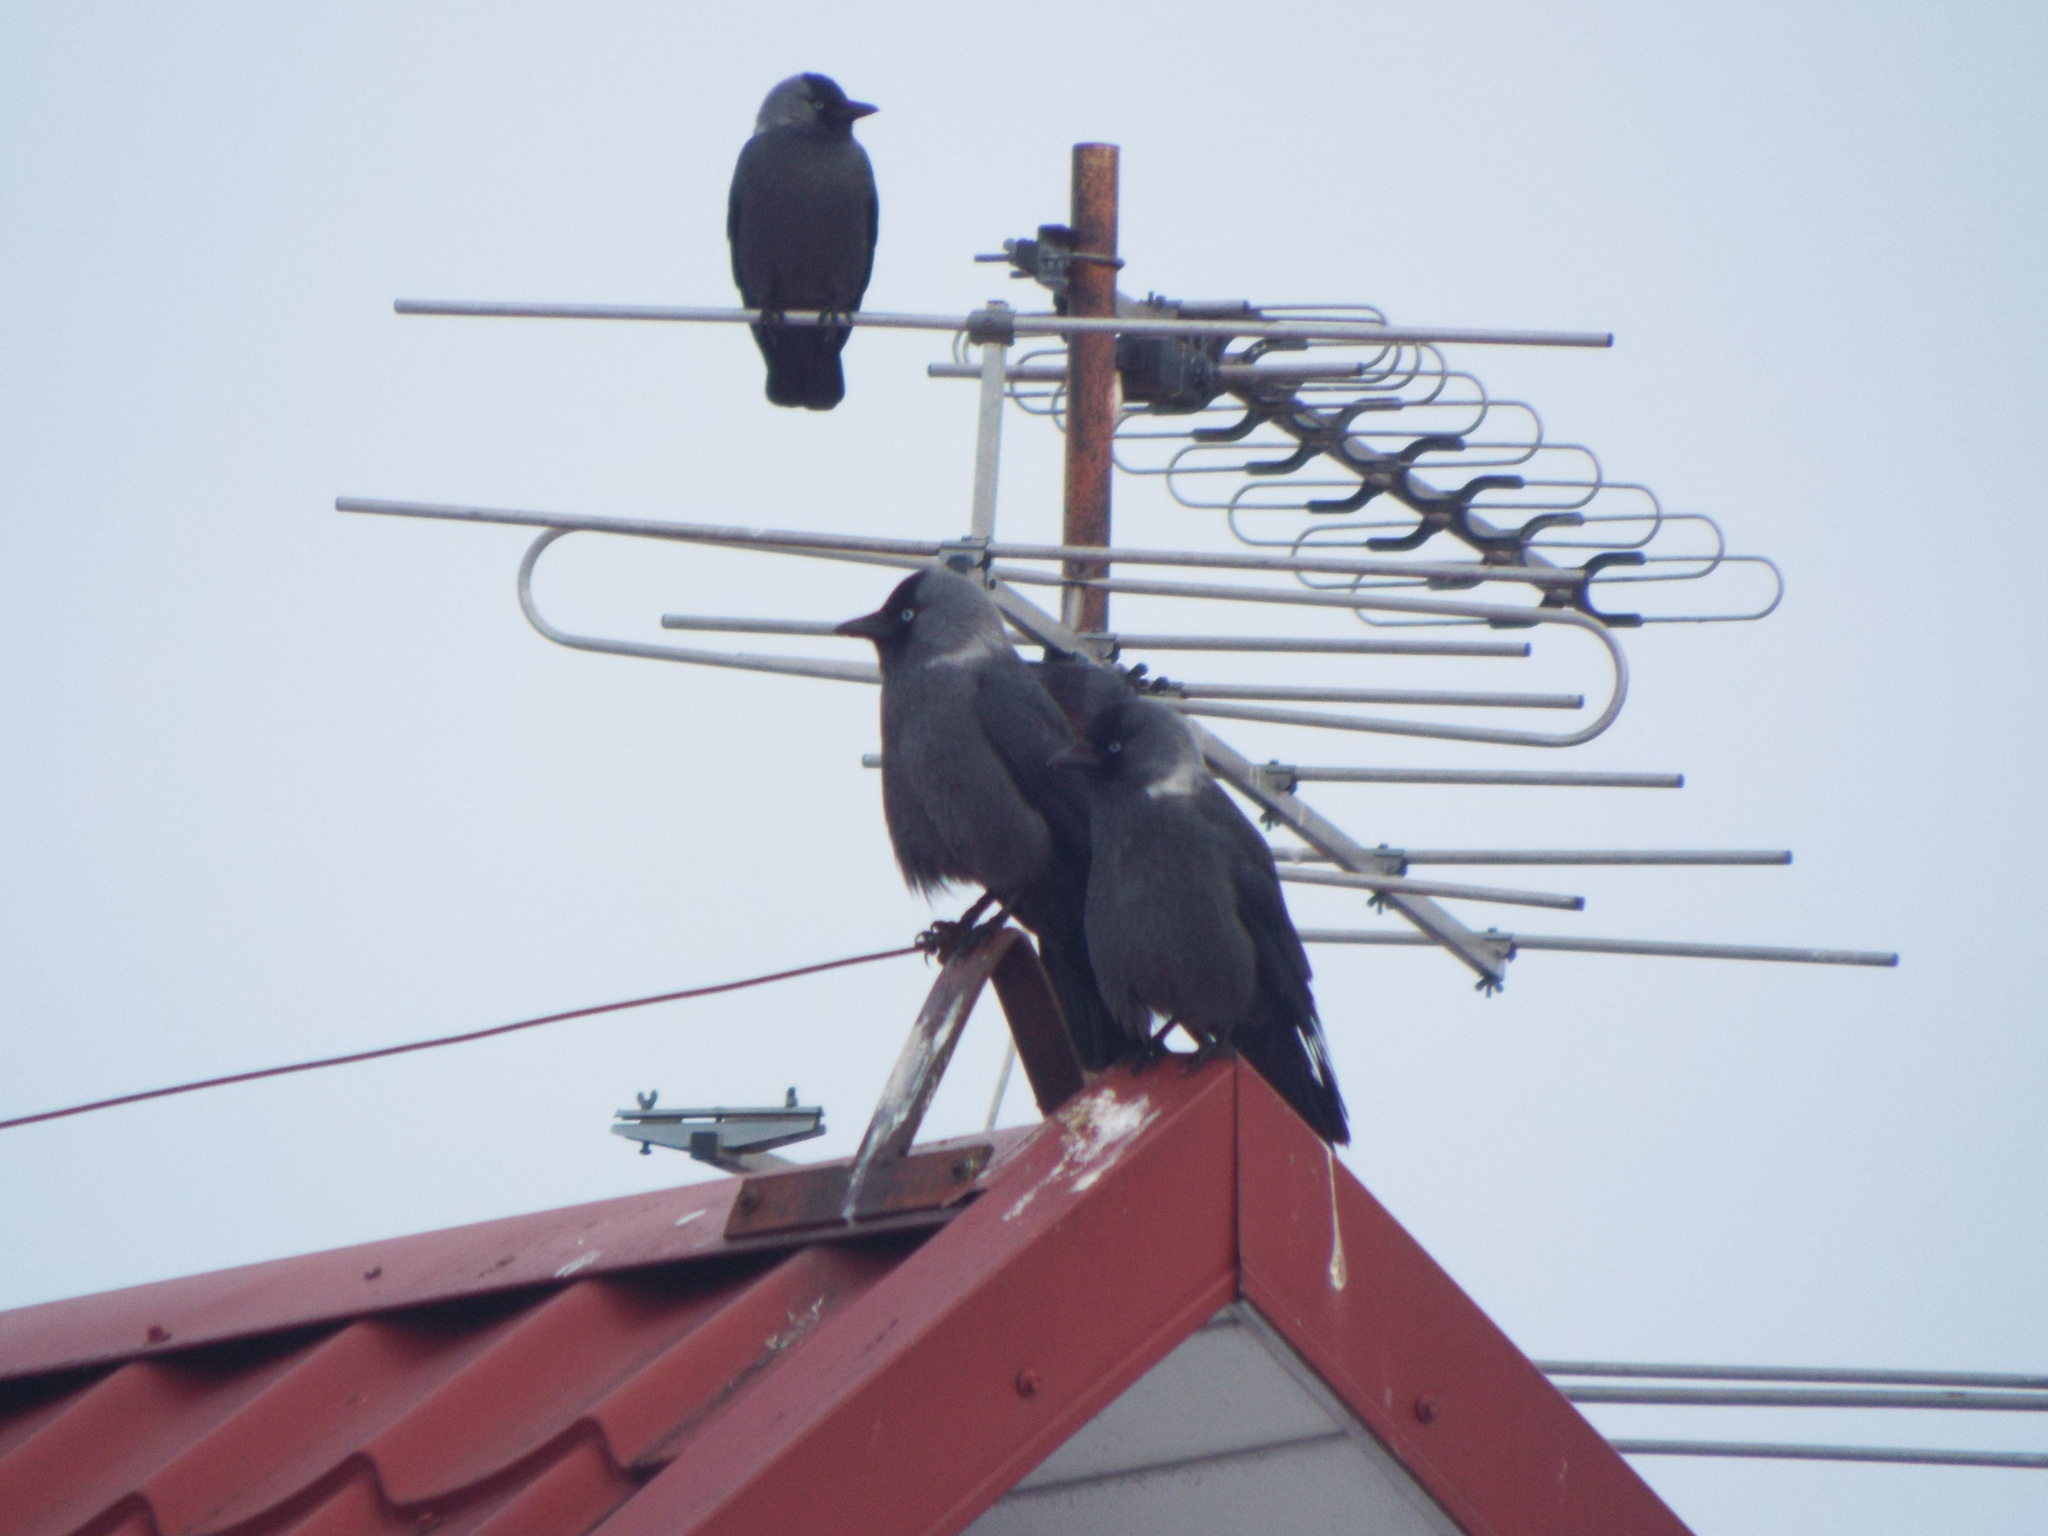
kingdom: Animalia
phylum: Chordata
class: Aves
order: Passeriformes
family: Corvidae
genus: Coloeus
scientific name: Coloeus monedula
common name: Western jackdaw
